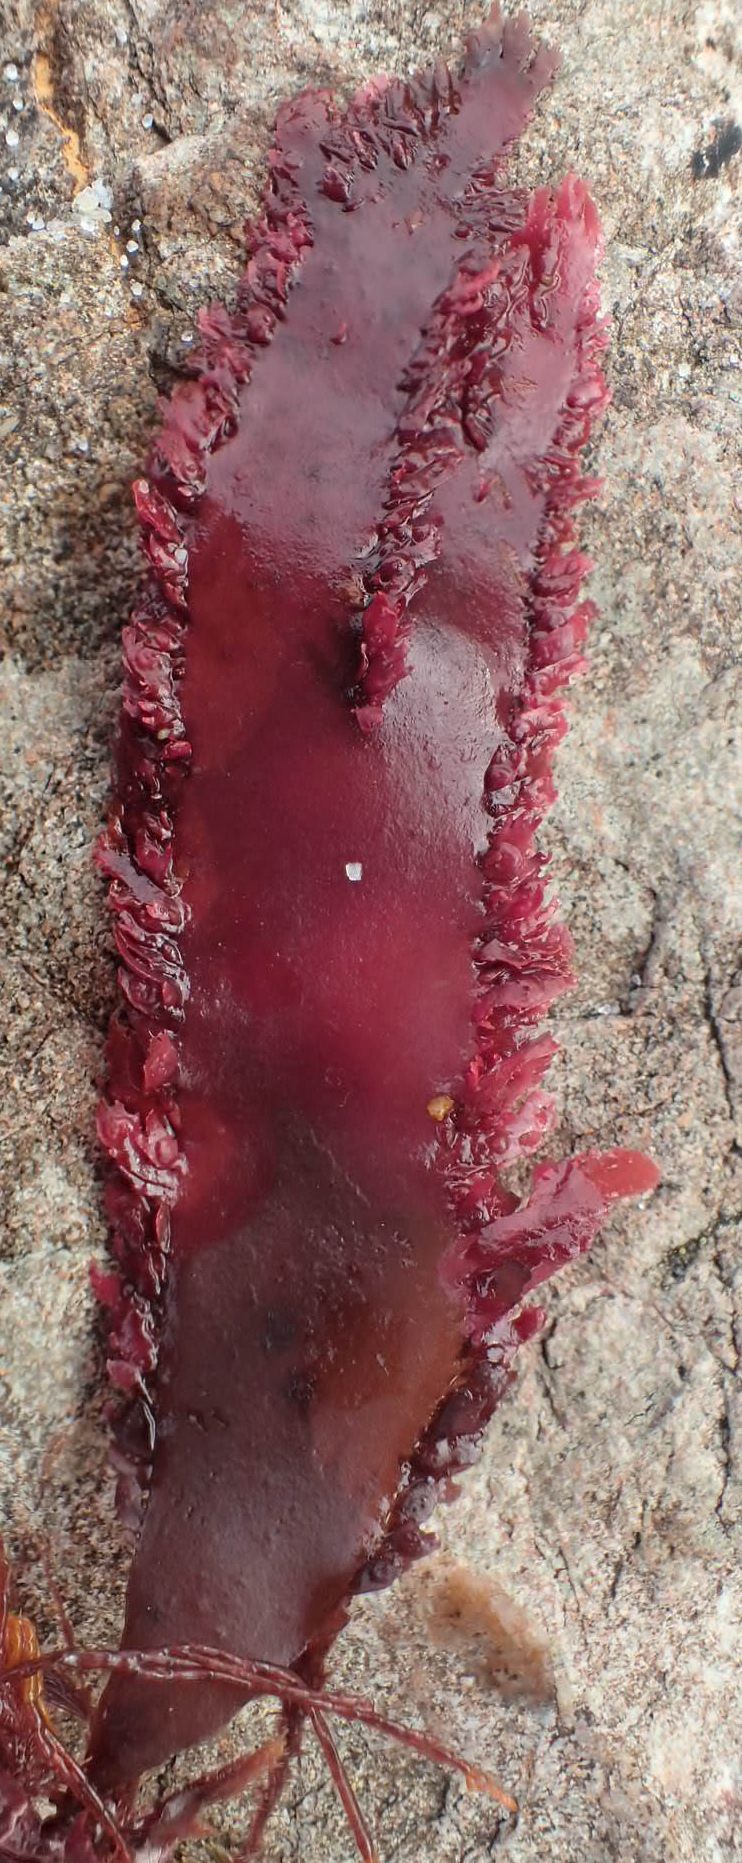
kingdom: Plantae
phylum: Rhodophyta
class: Florideophyceae
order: Gigartinales
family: Kallymeniaceae
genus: Blastophyllis
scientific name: Blastophyllis calliblepharoides
